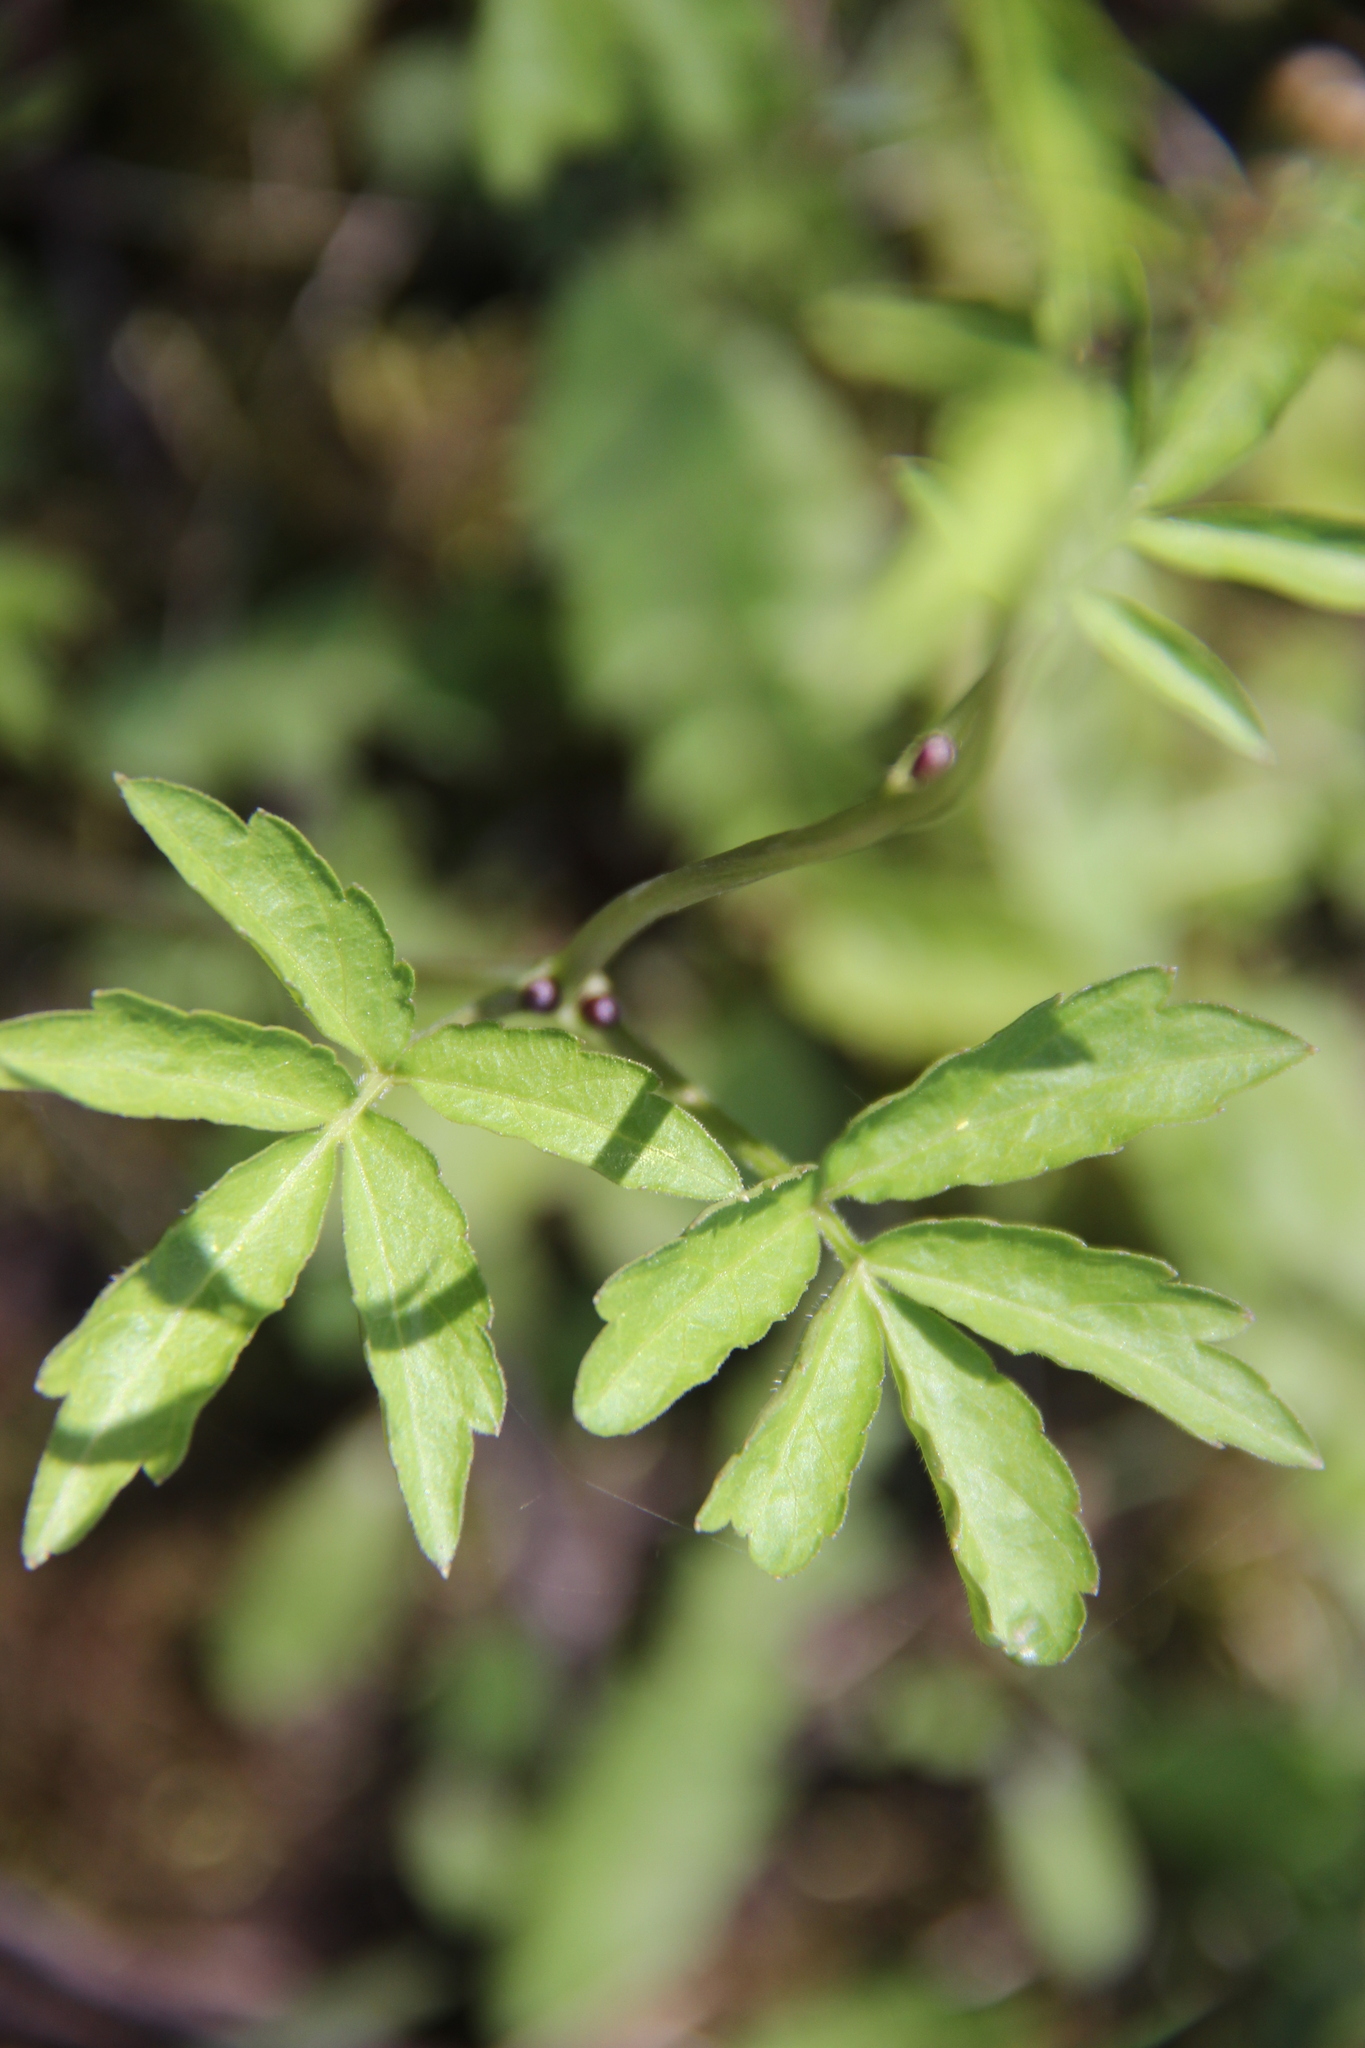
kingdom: Plantae
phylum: Tracheophyta
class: Magnoliopsida
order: Brassicales
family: Brassicaceae
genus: Cardamine
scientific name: Cardamine bulbifera
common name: Coralroot bittercress
